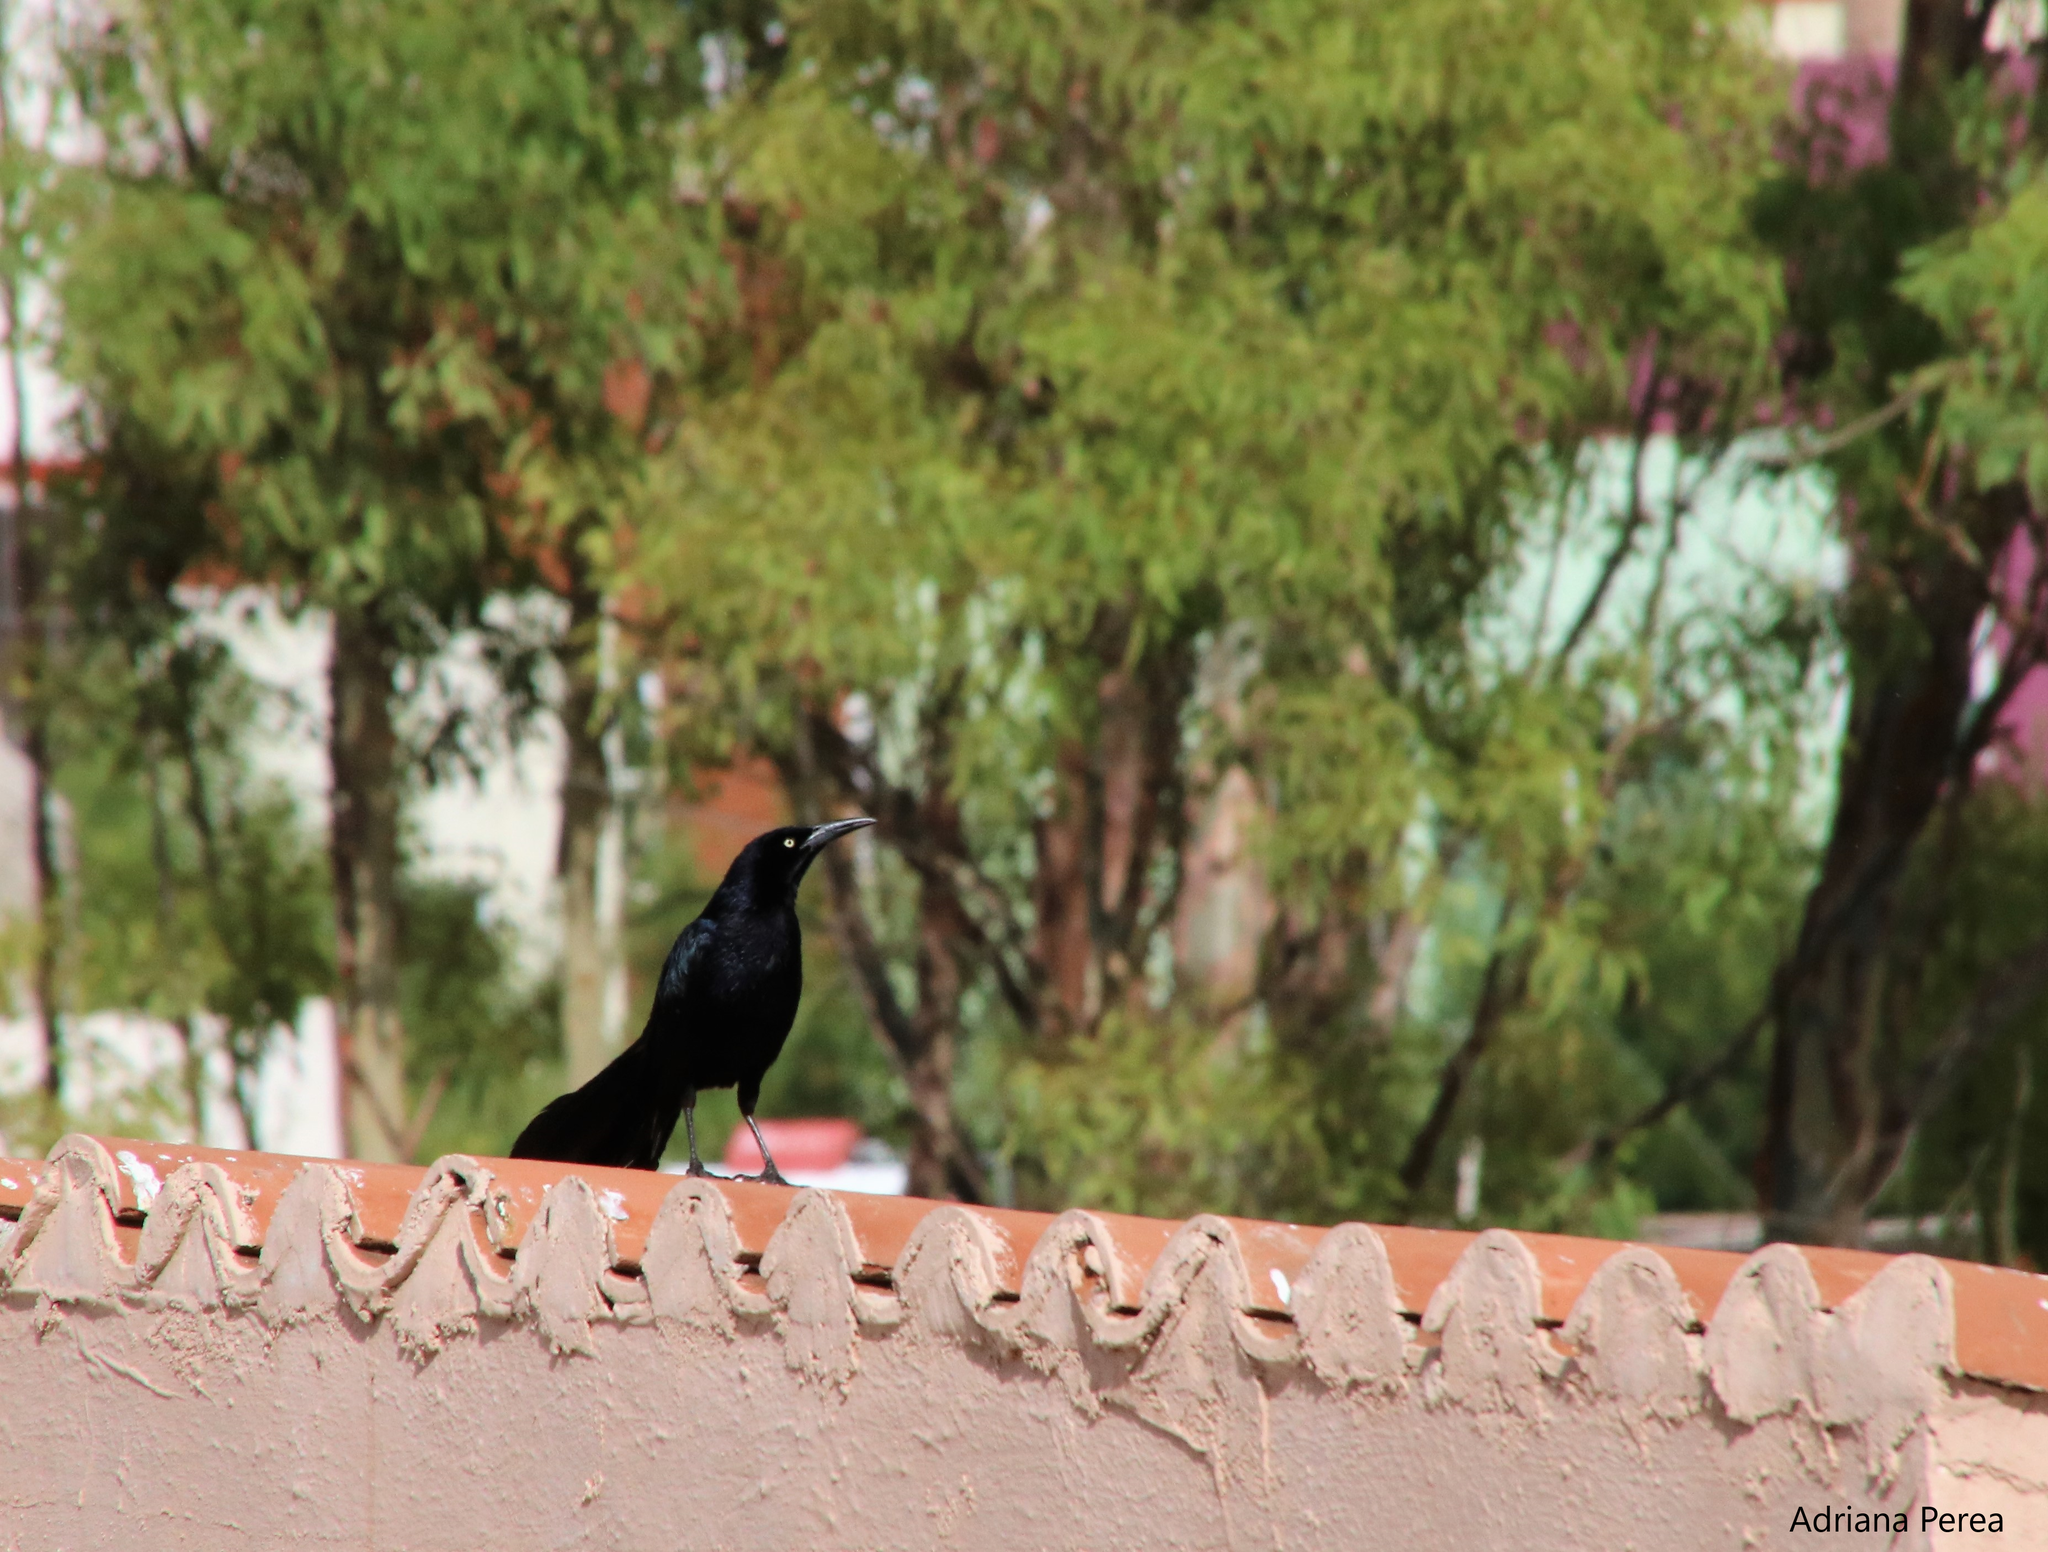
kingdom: Animalia
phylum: Chordata
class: Aves
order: Passeriformes
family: Icteridae
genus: Quiscalus
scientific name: Quiscalus mexicanus
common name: Great-tailed grackle
